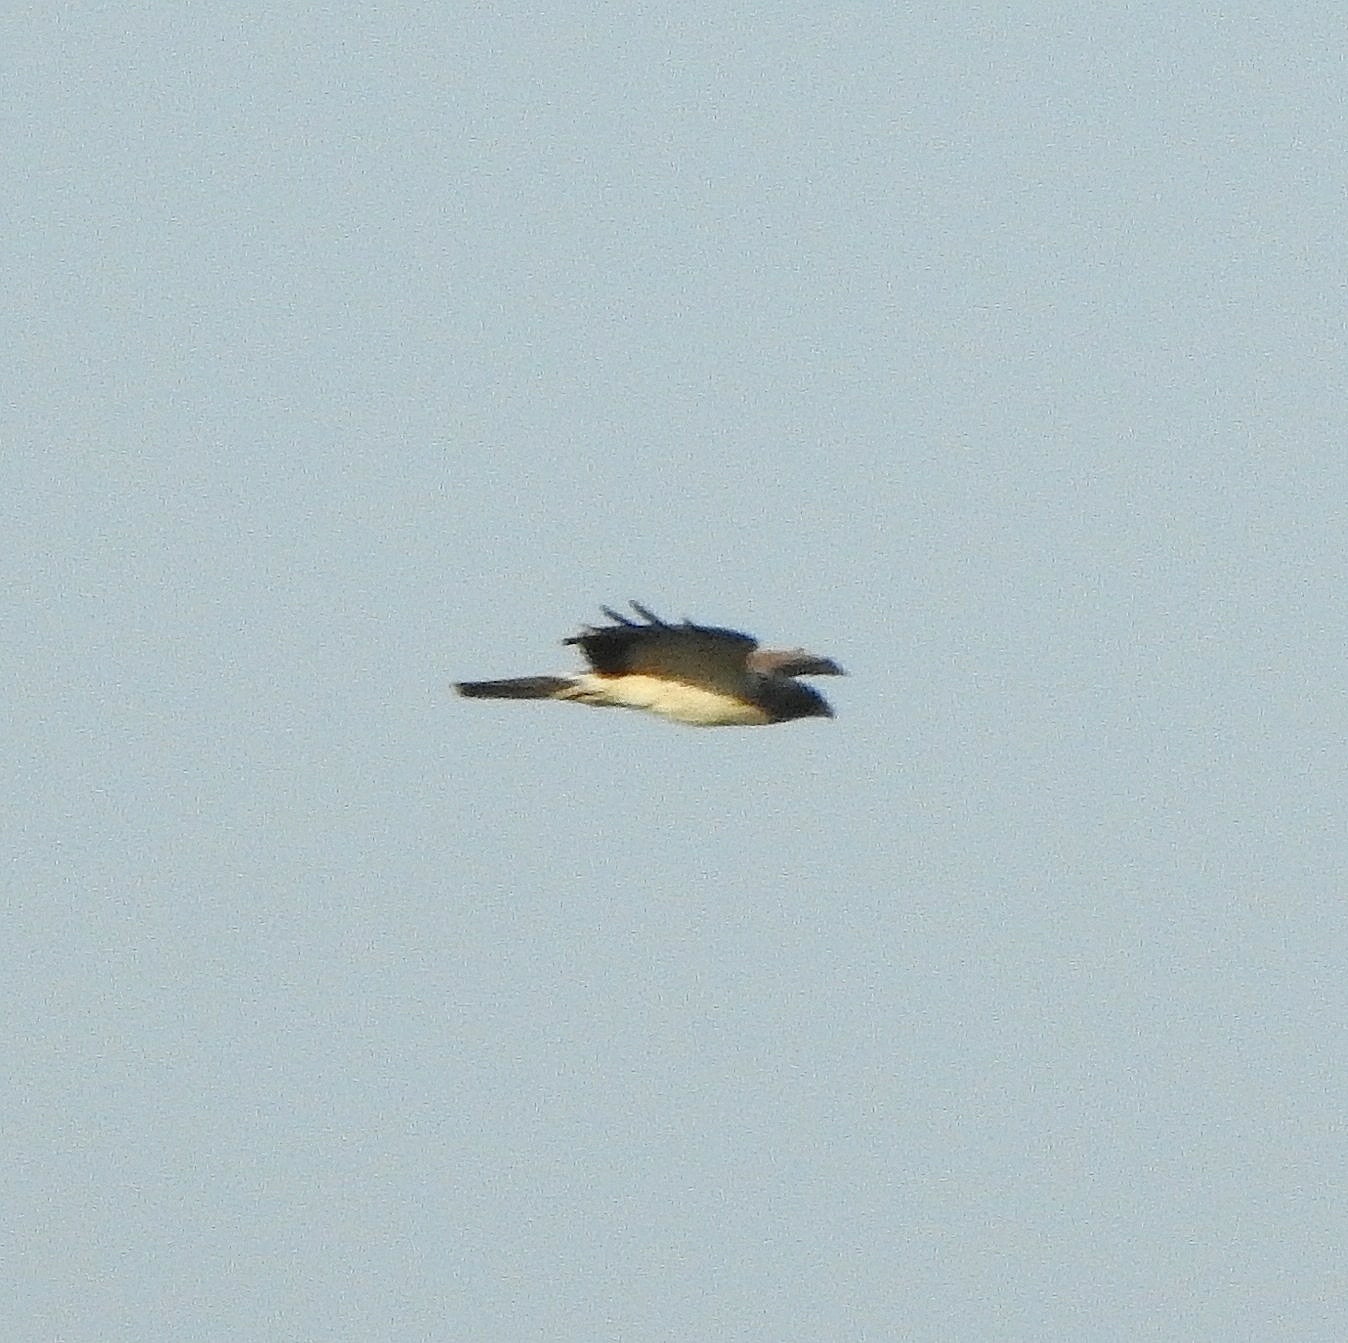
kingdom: Animalia
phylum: Chordata
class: Aves
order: Accipitriformes
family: Accipitridae
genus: Hieraaetus
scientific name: Hieraaetus pennatus
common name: Booted eagle
